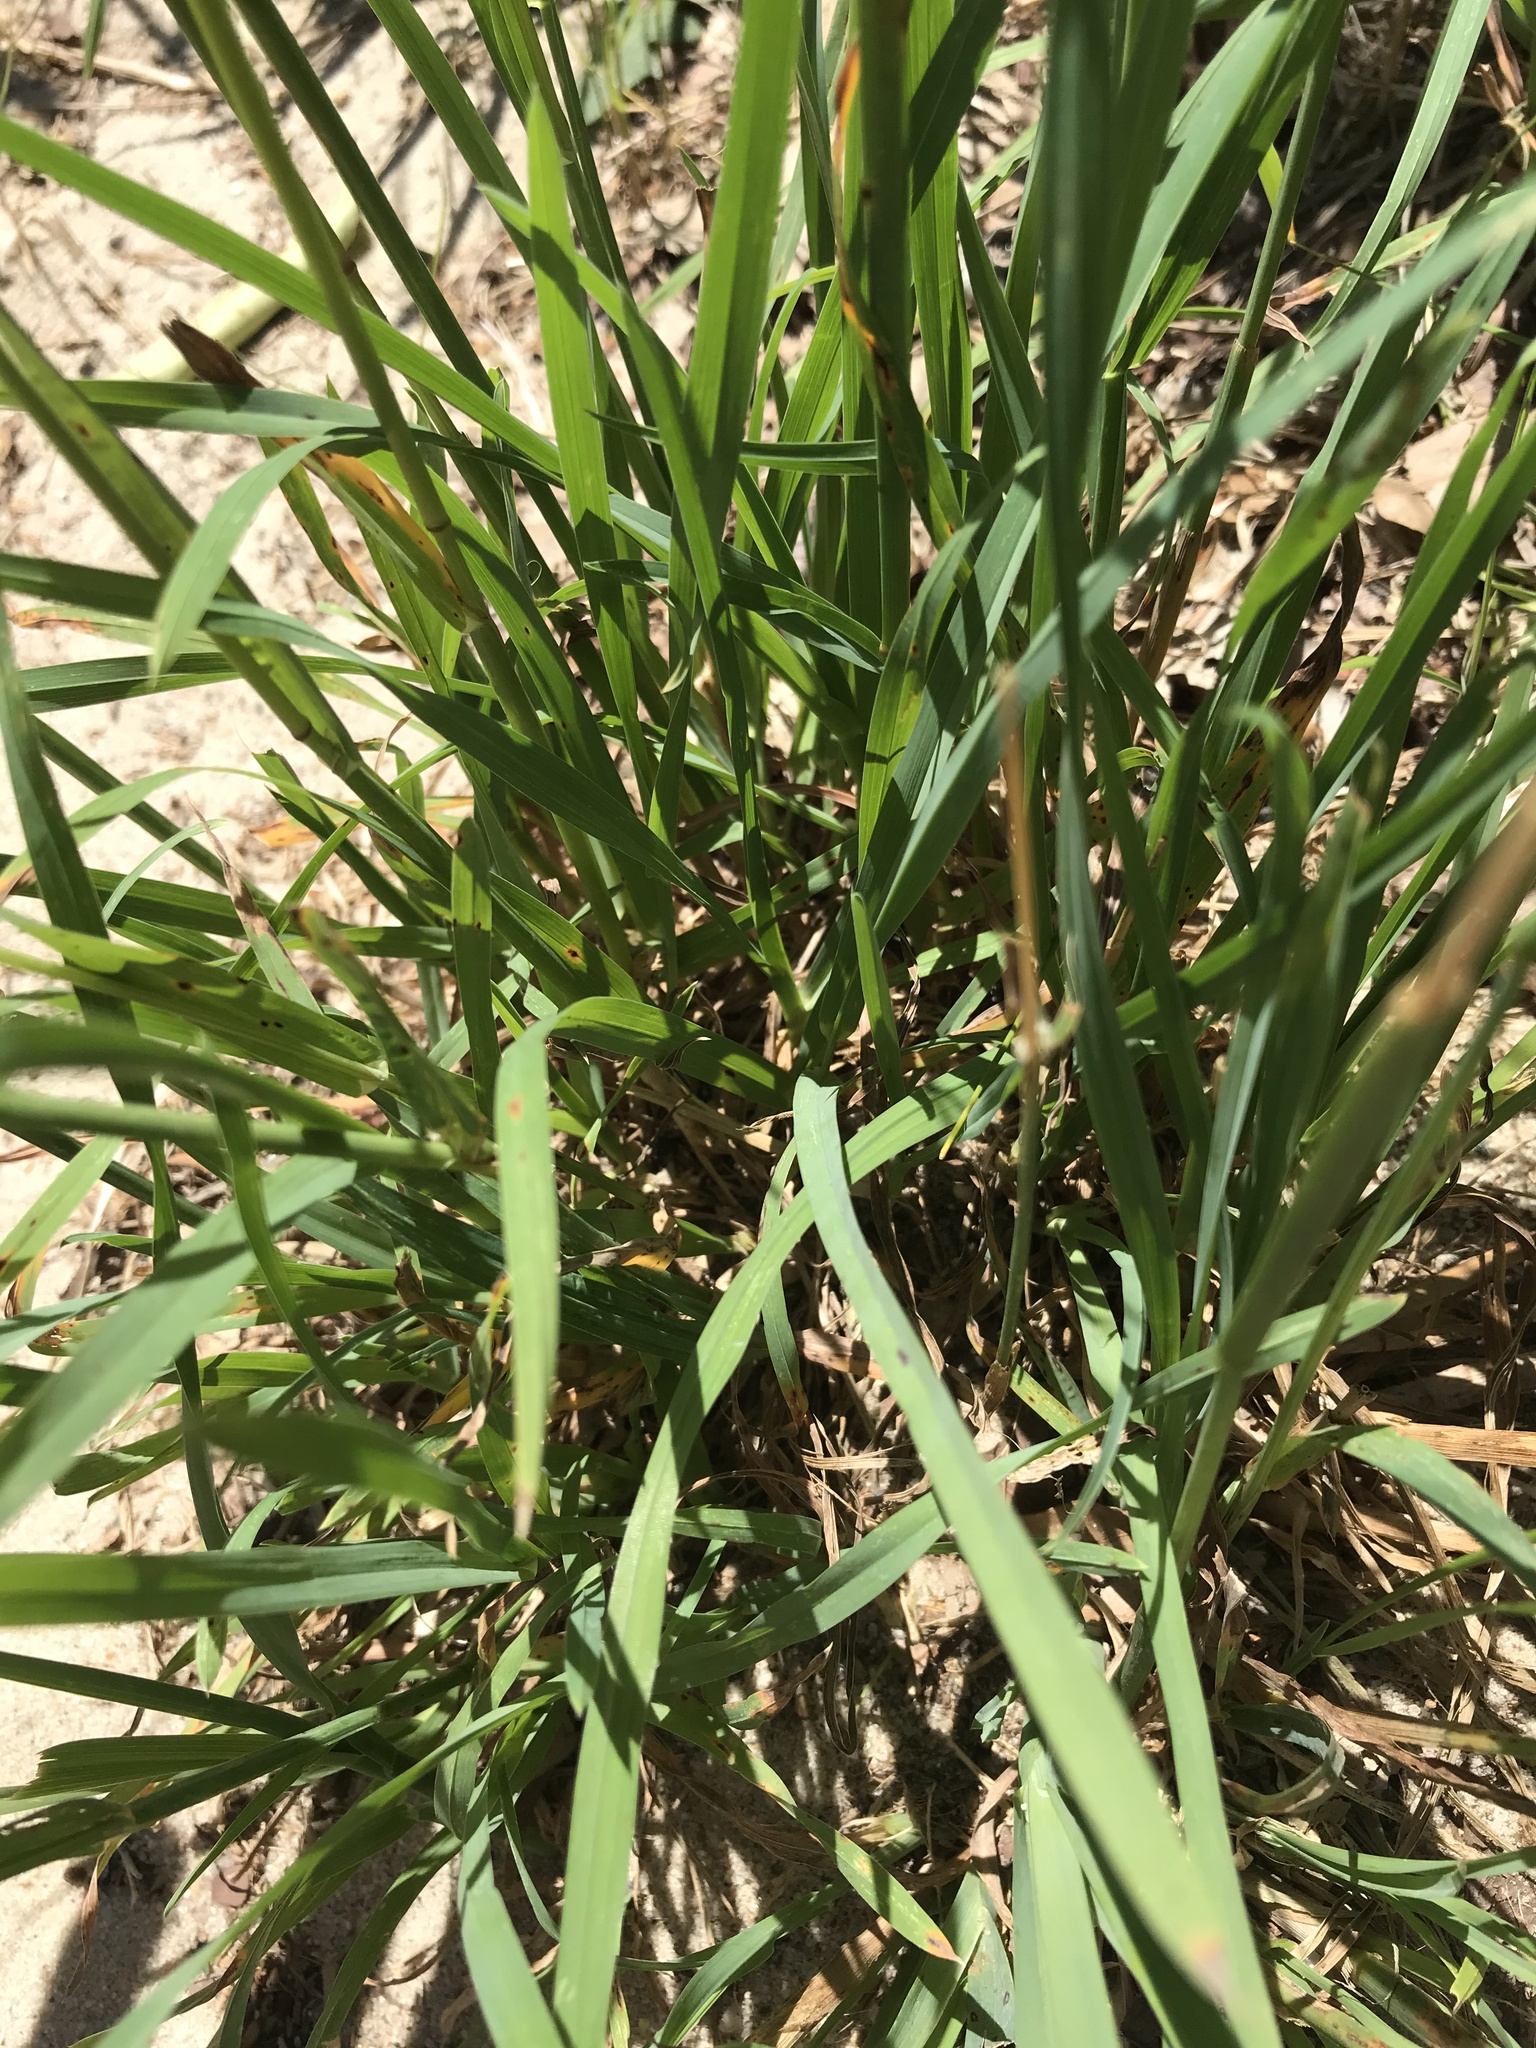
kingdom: Plantae
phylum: Tracheophyta
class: Liliopsida
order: Poales
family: Poaceae
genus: Dactylis
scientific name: Dactylis glomerata
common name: Orchardgrass
